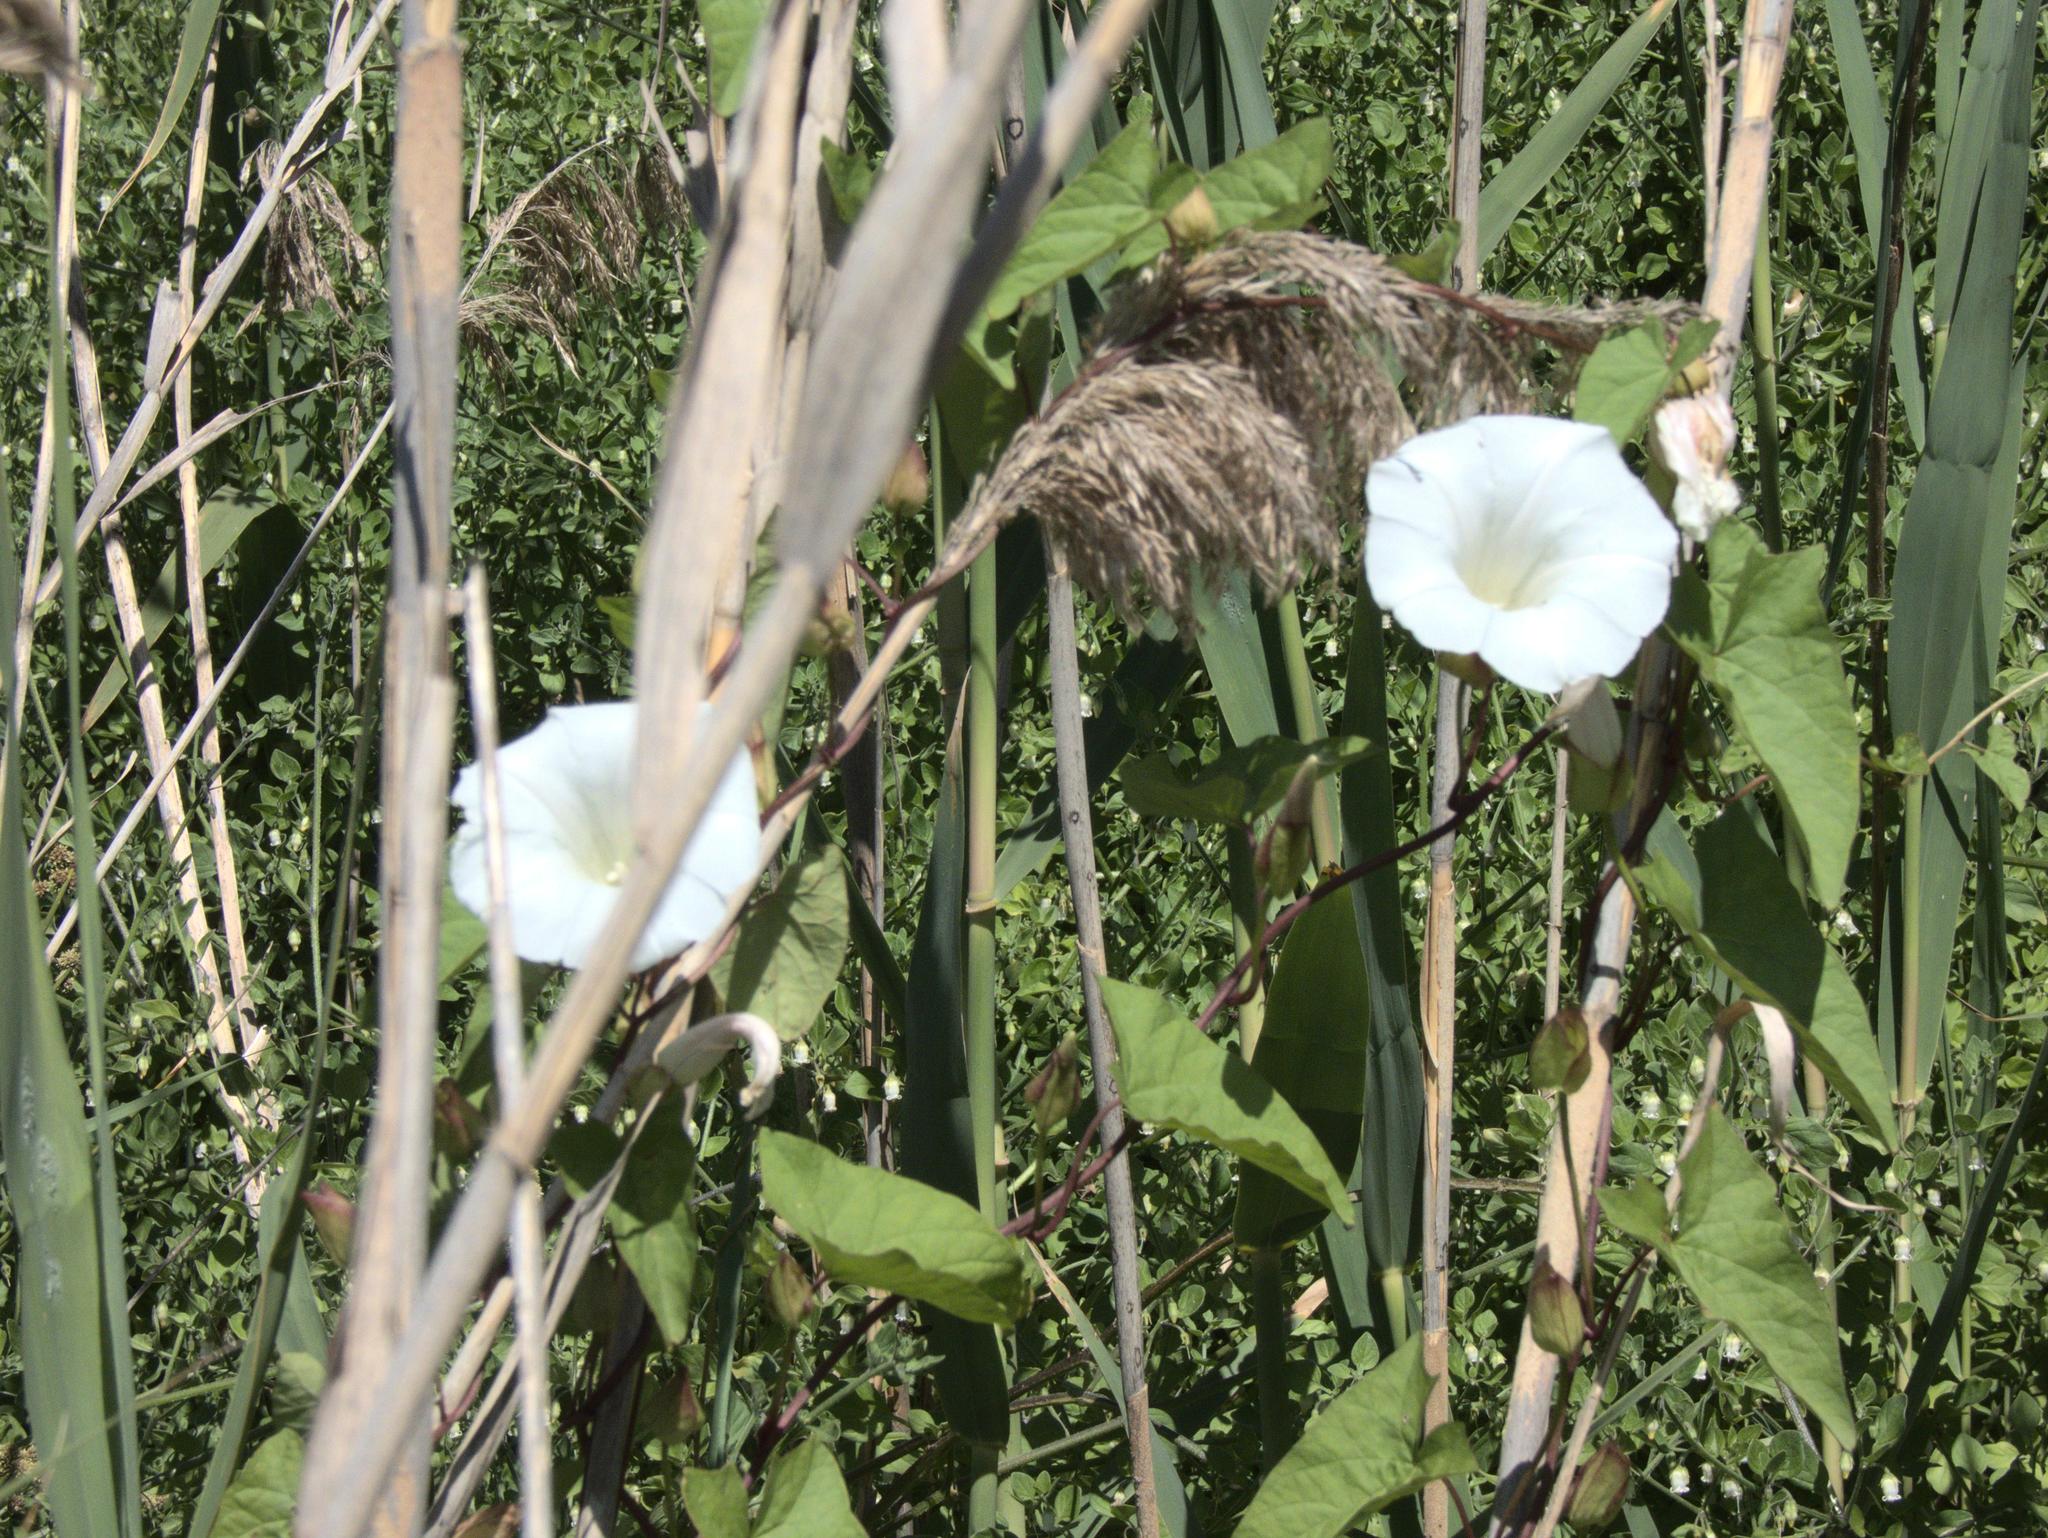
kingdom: Plantae
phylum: Tracheophyta
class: Magnoliopsida
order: Solanales
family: Convolvulaceae
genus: Calystegia
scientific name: Calystegia silvatica
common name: Large bindweed
